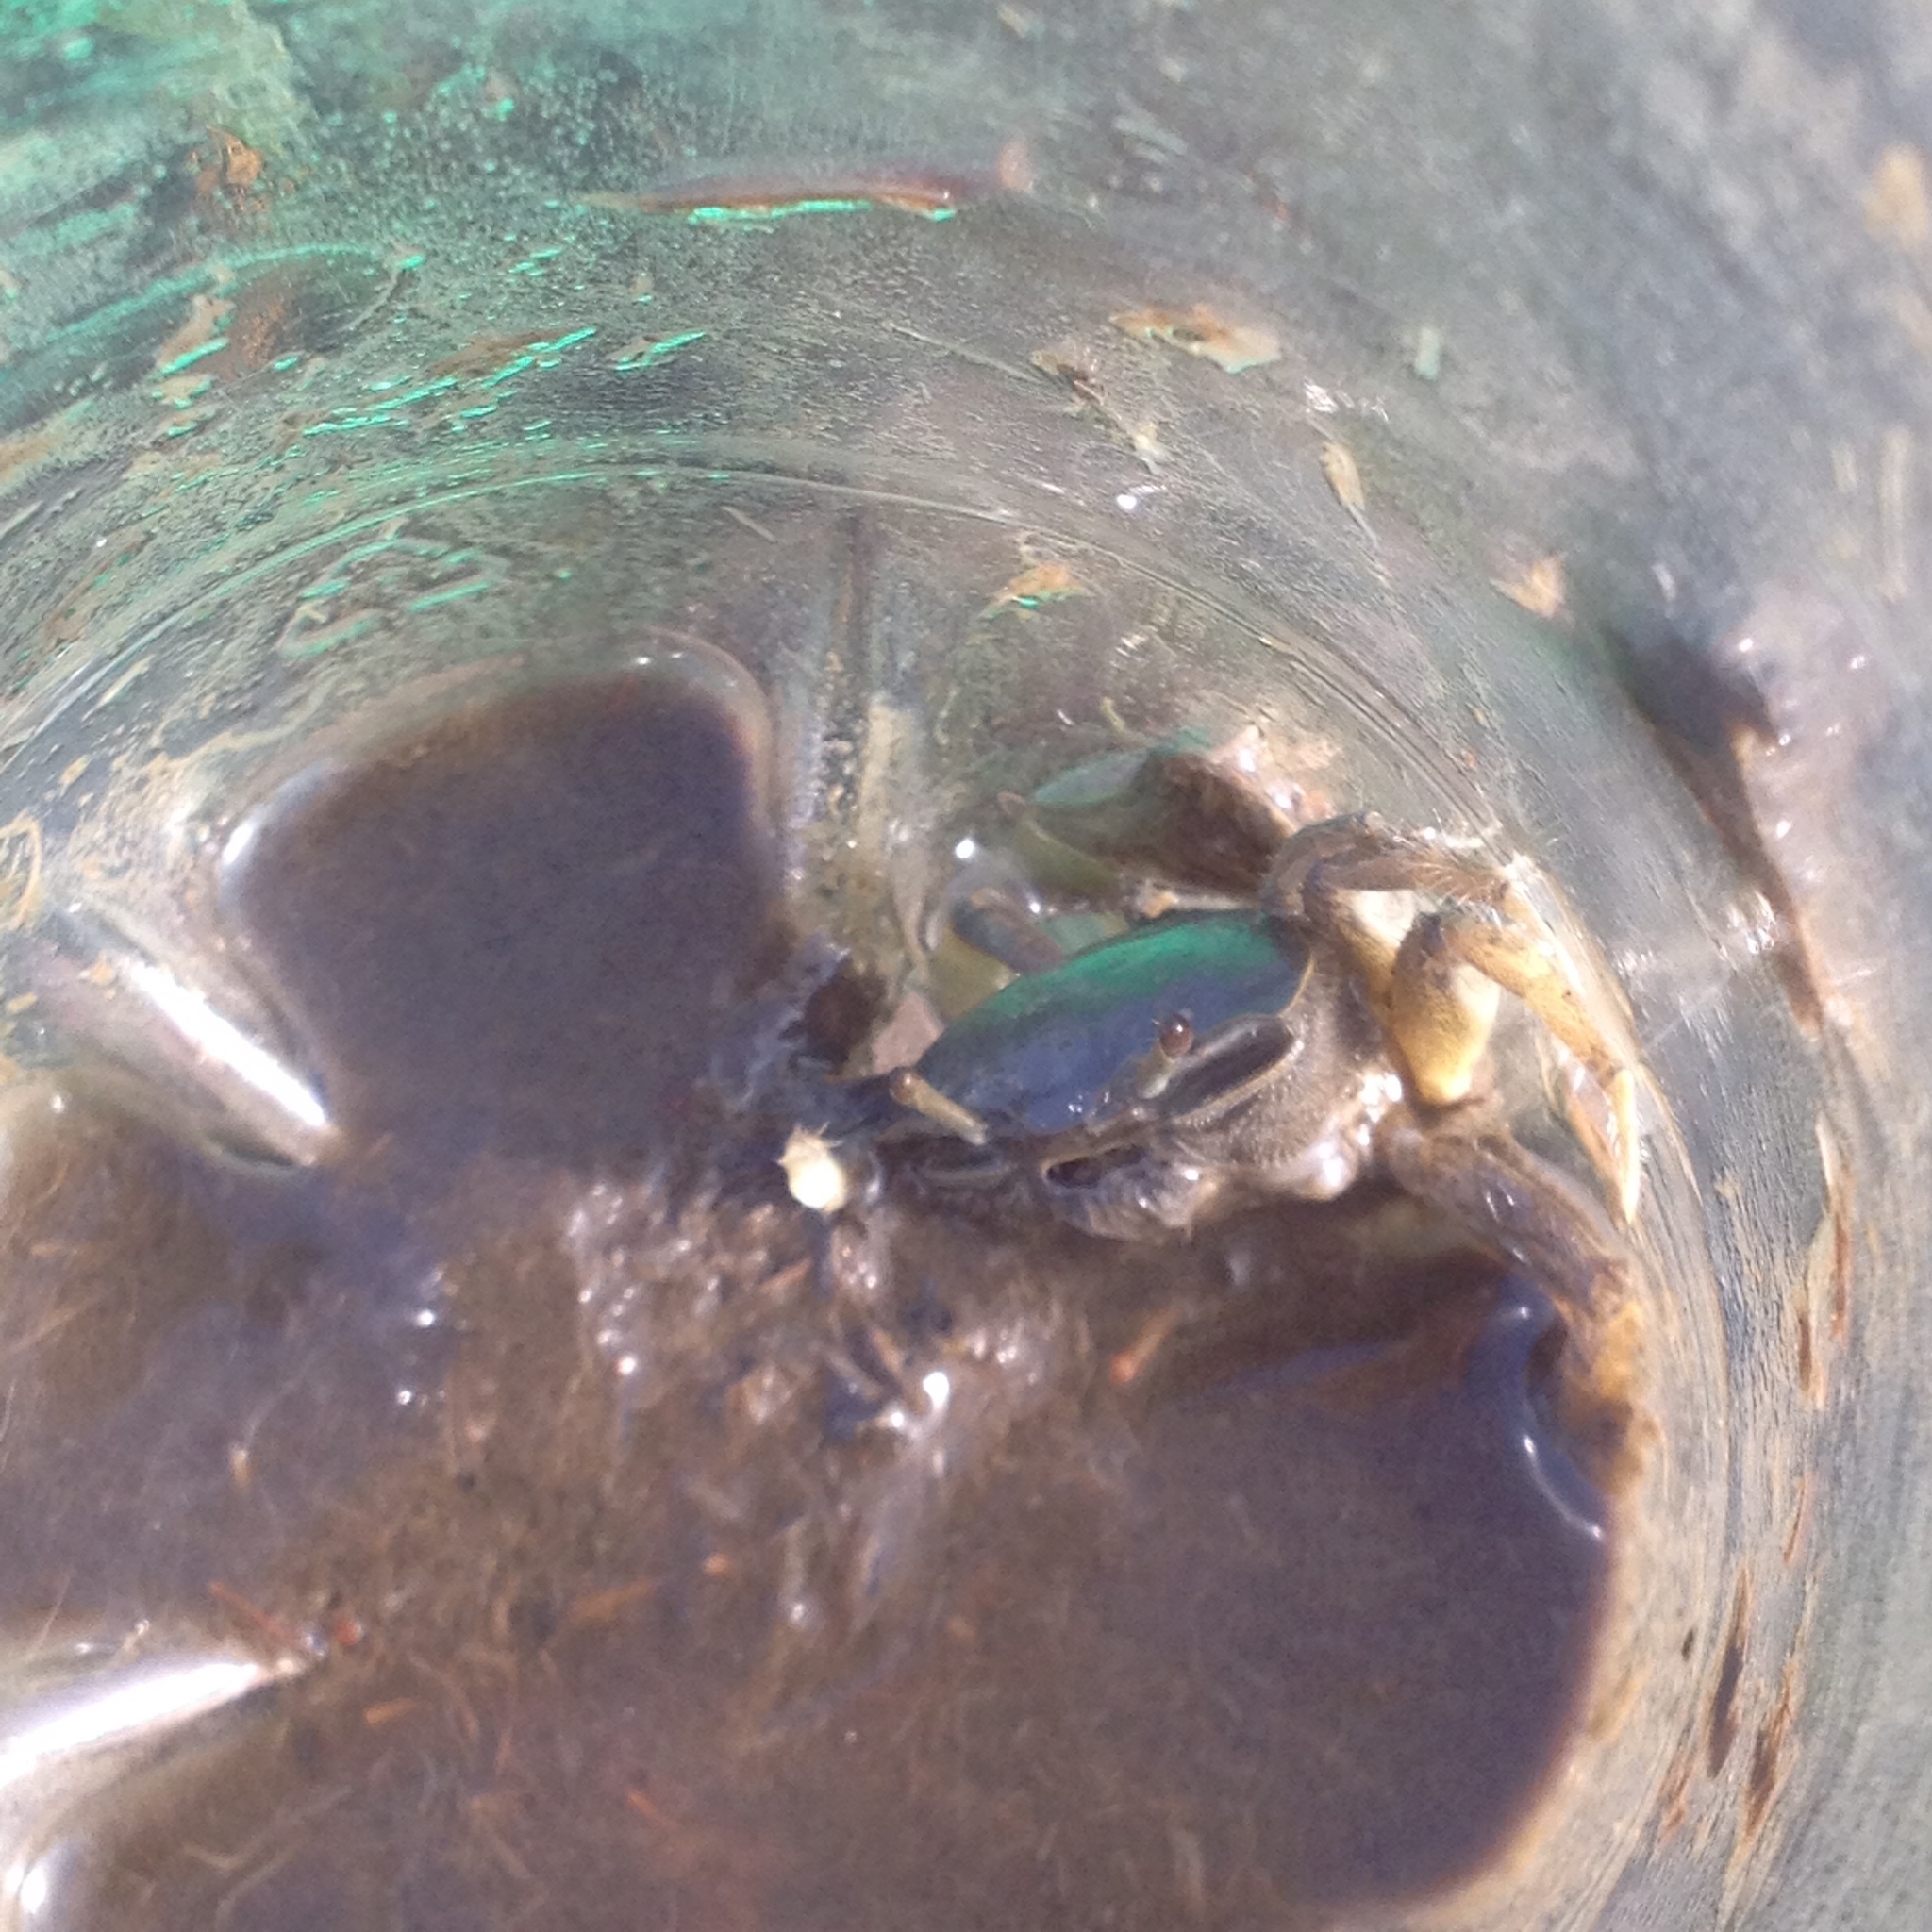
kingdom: Animalia
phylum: Arthropoda
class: Malacostraca
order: Decapoda
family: Ocypodidae
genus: Minuca
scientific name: Minuca pugnax
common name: Mud fiddler crab
